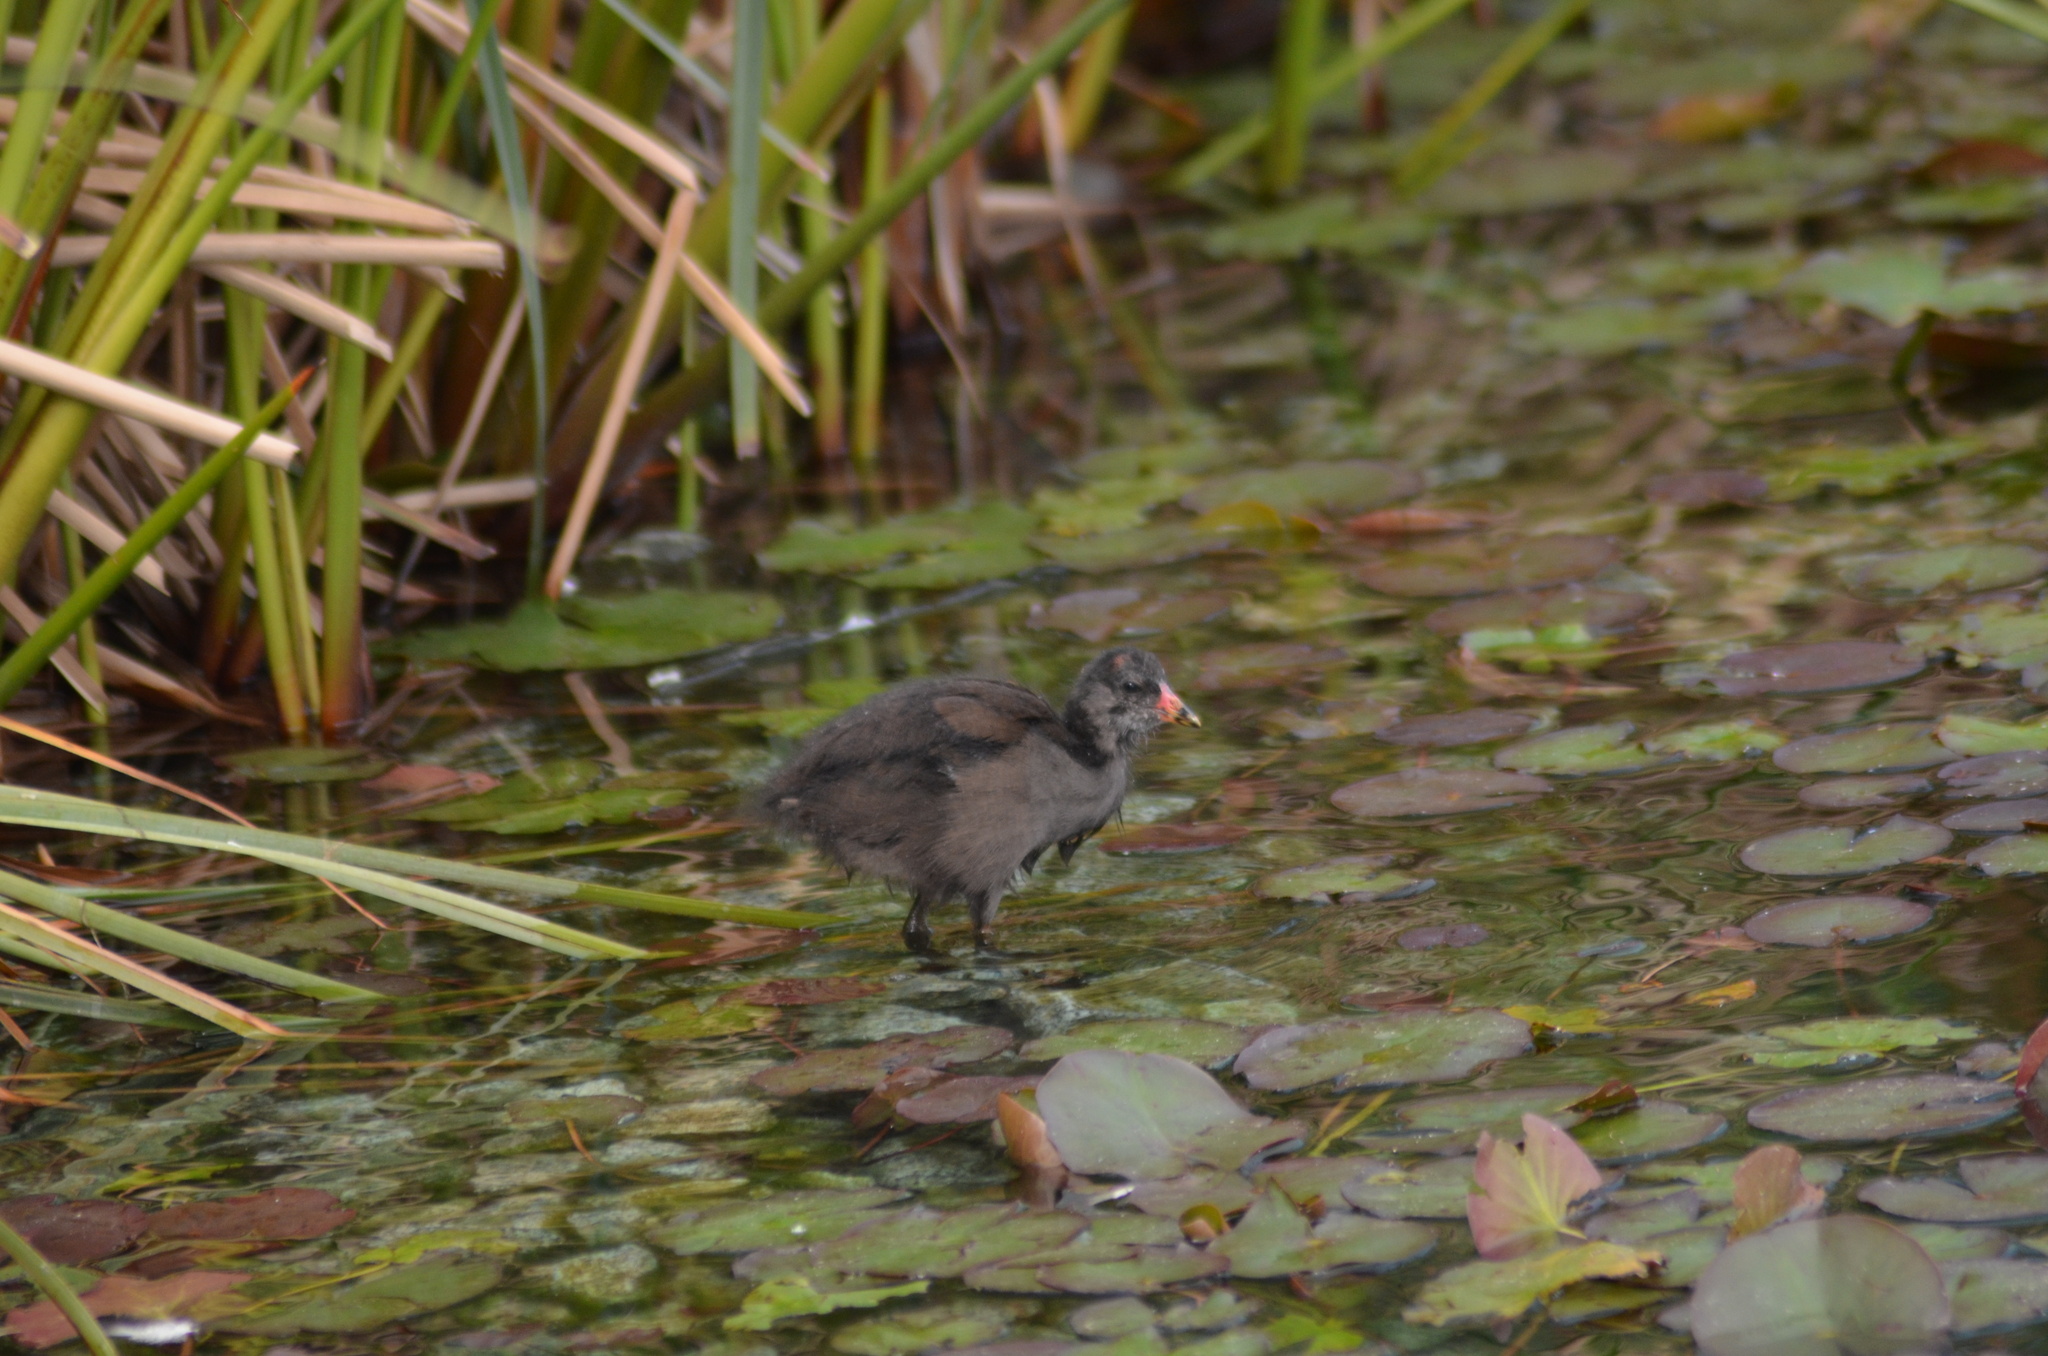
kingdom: Animalia
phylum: Chordata
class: Aves
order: Gruiformes
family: Rallidae
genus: Gallinula
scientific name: Gallinula chloropus
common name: Common moorhen
